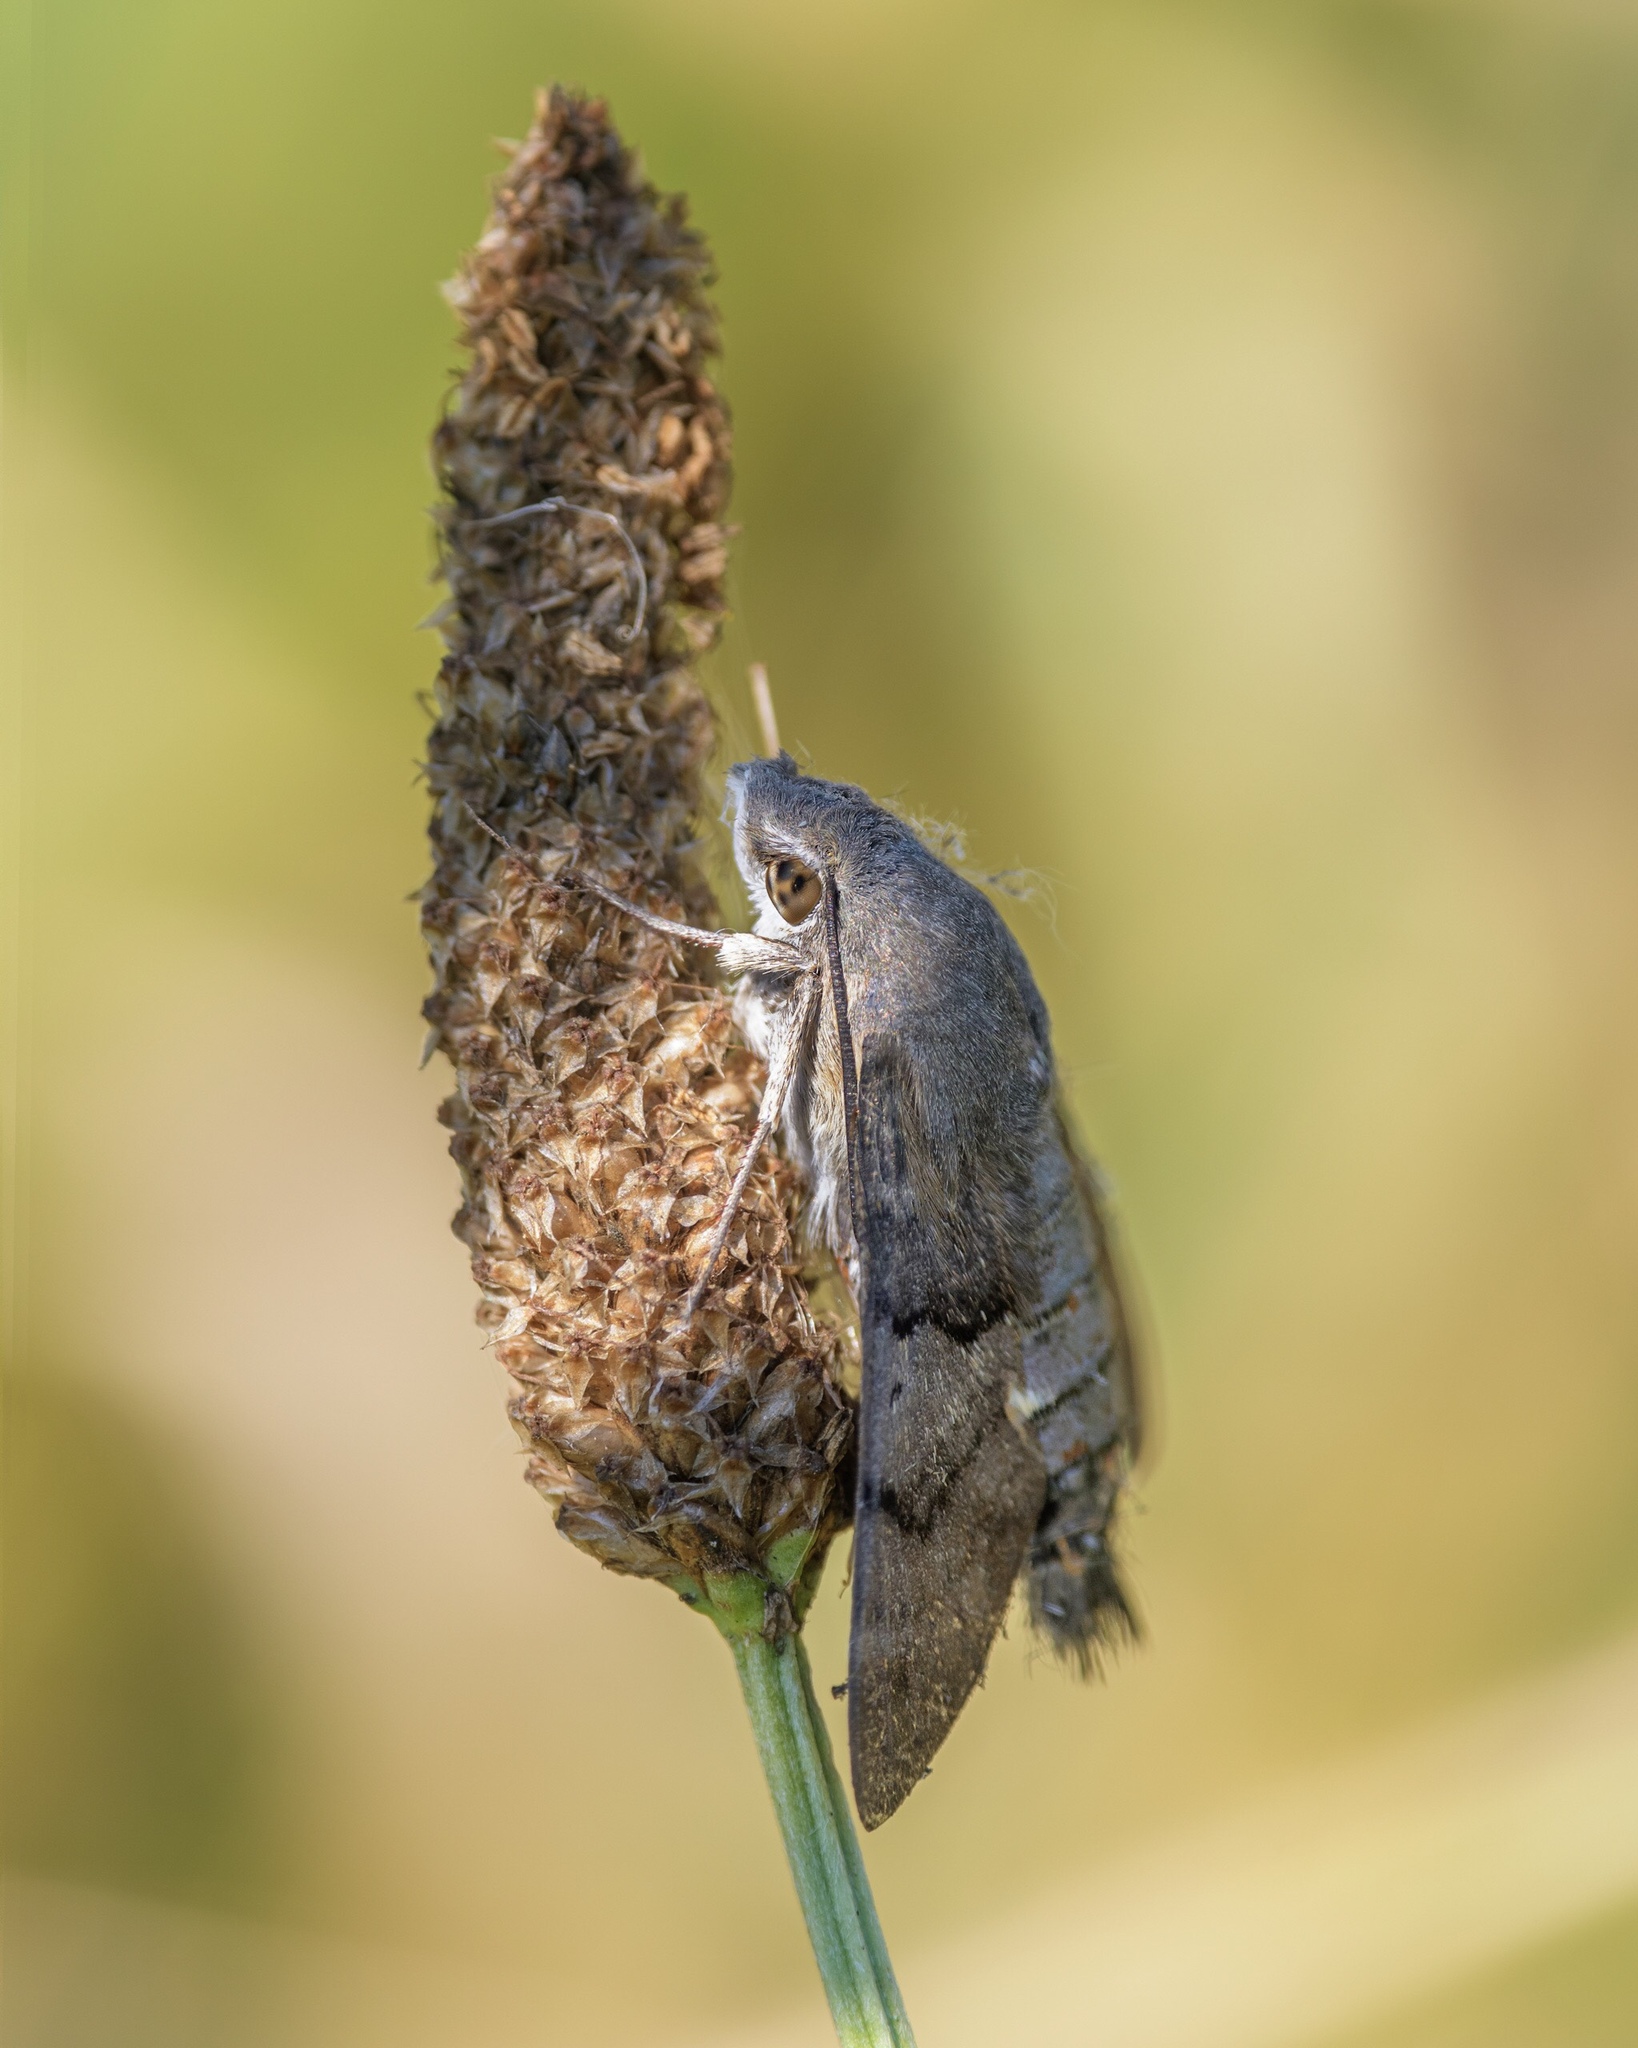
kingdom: Animalia
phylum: Arthropoda
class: Insecta
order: Lepidoptera
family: Sphingidae
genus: Macroglossum
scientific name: Macroglossum stellatarum
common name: Humming-bird hawk-moth
